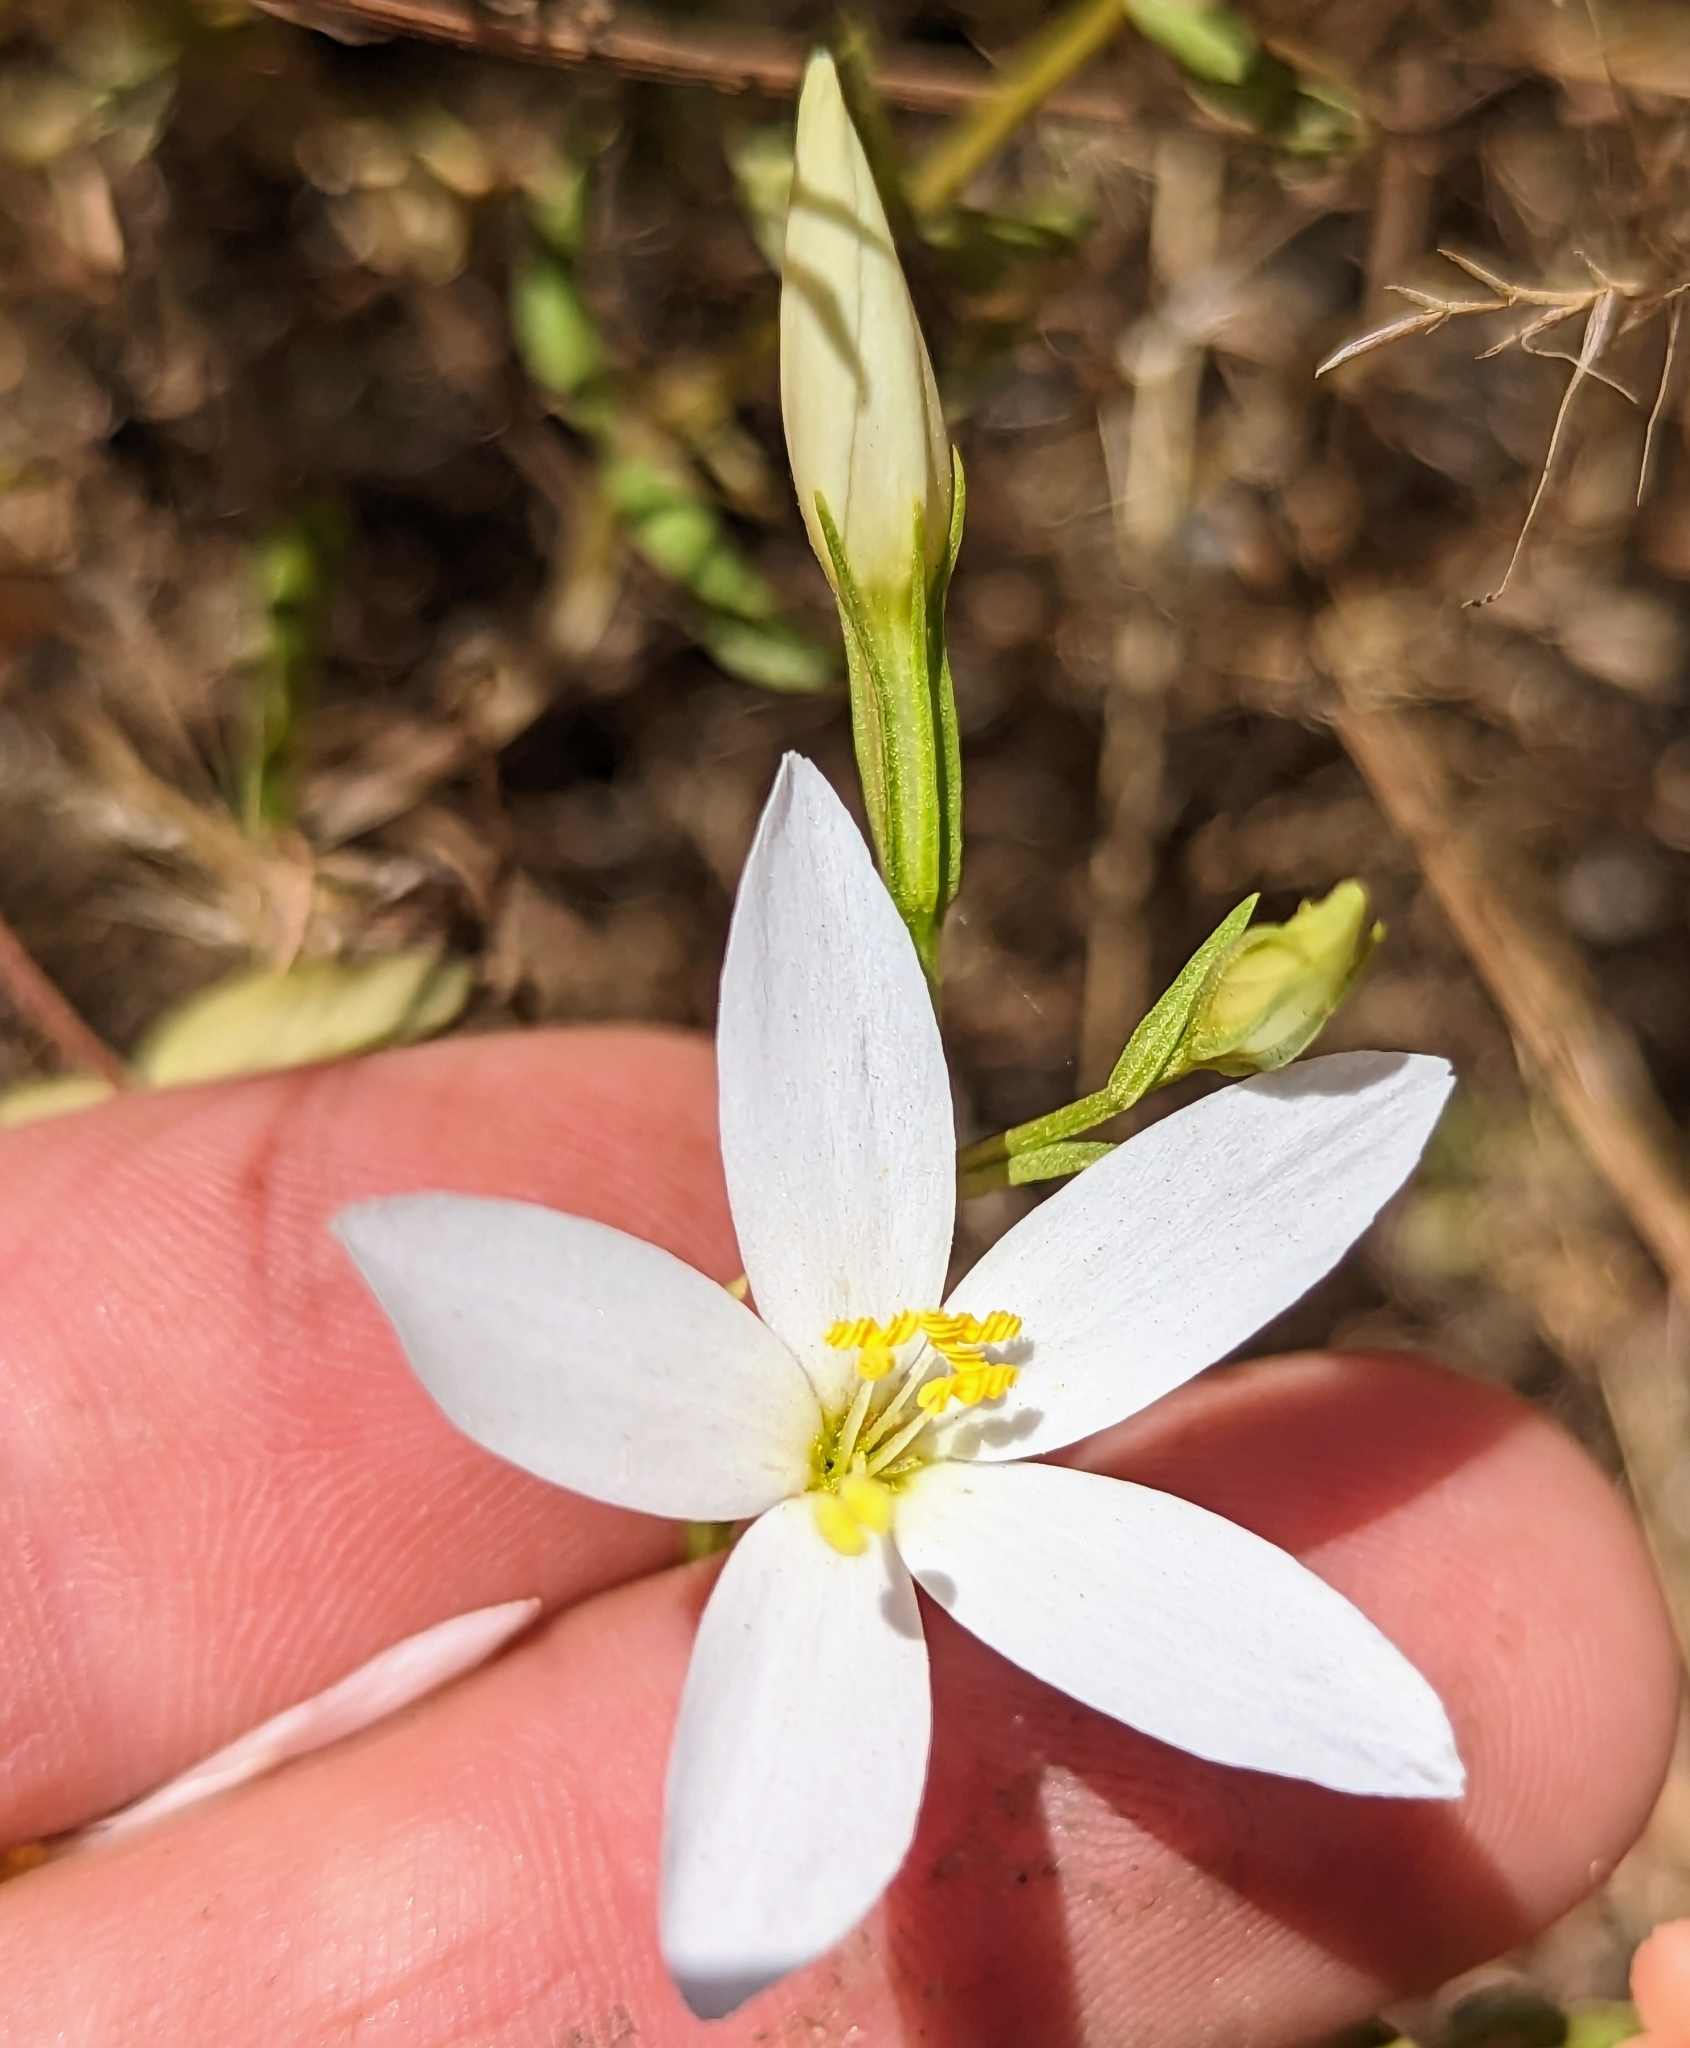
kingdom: Plantae
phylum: Tracheophyta
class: Magnoliopsida
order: Gentianales
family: Gentianaceae
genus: Zeltnera
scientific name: Zeltnera venusta
